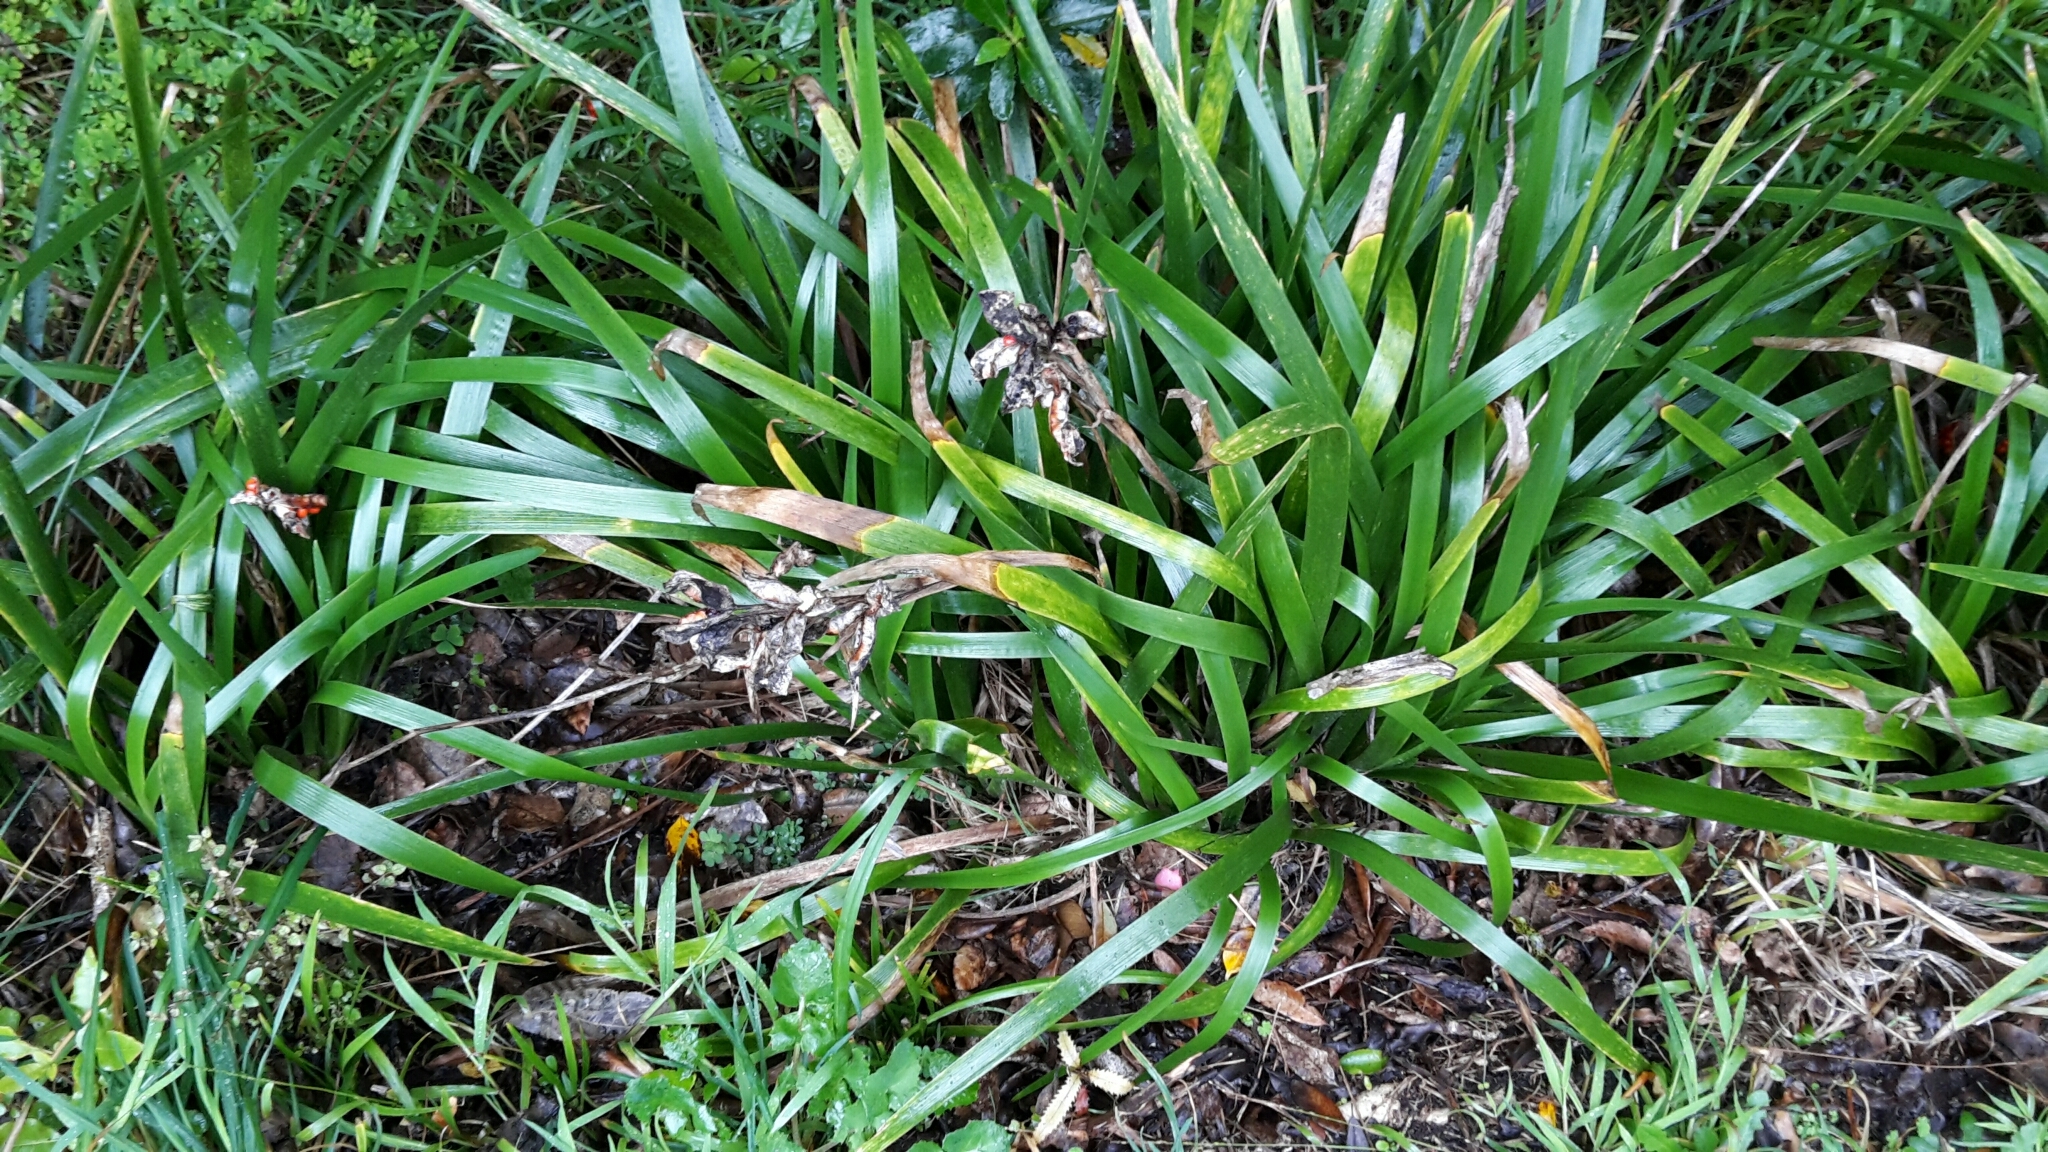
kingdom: Plantae
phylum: Tracheophyta
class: Liliopsida
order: Asparagales
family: Iridaceae
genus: Iris
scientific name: Iris foetidissima
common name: Stinking iris
